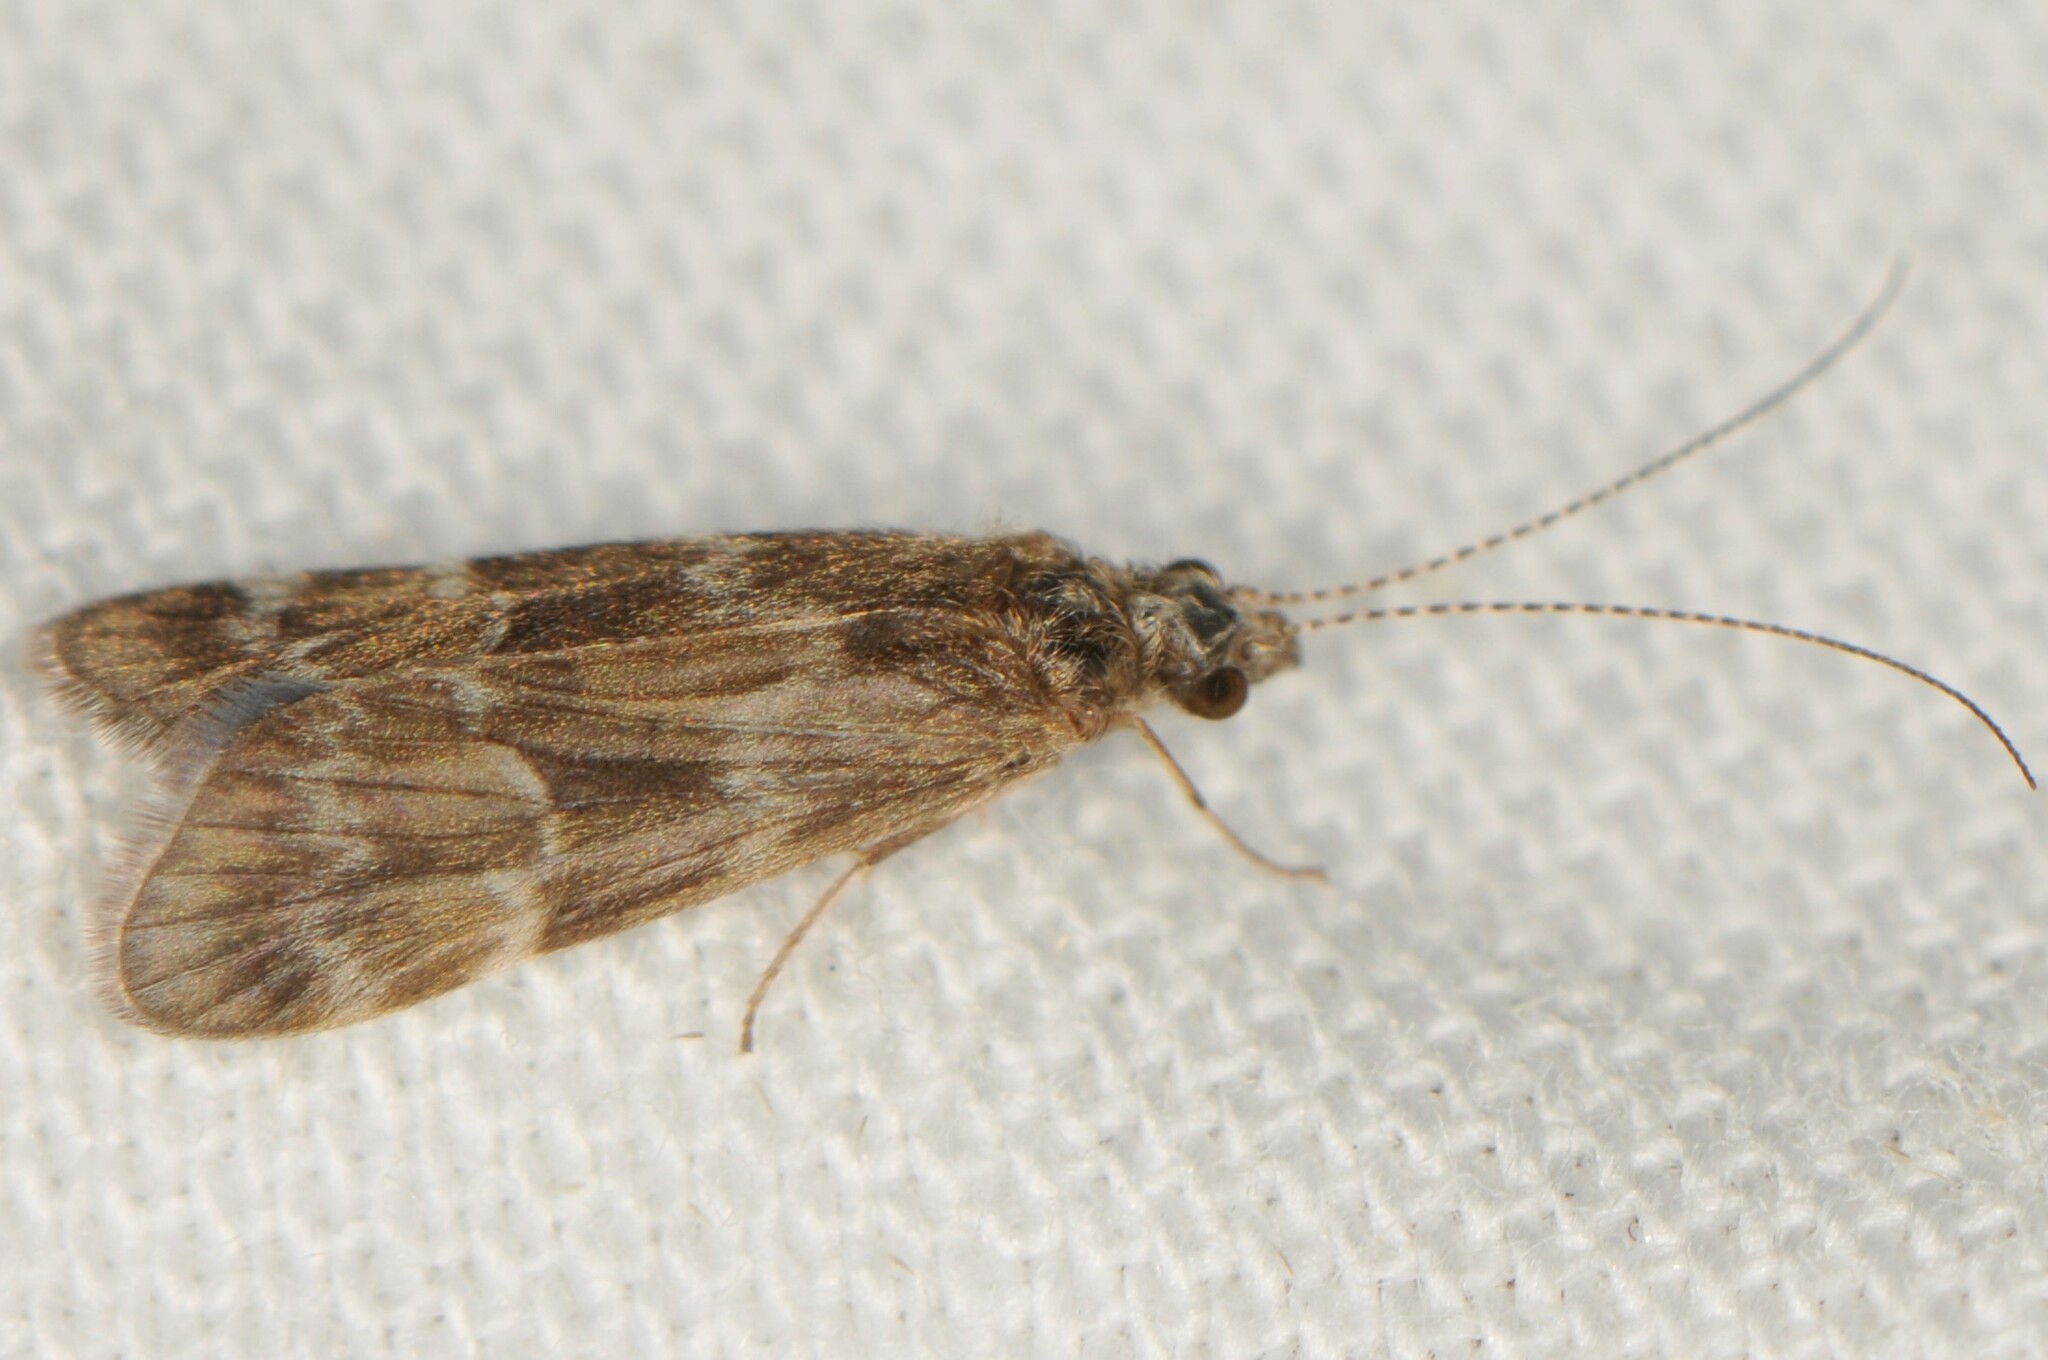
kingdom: Animalia
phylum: Arthropoda
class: Insecta
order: Trichoptera
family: Hydropsychidae
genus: Smicridea
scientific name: Smicridea fasciatella
